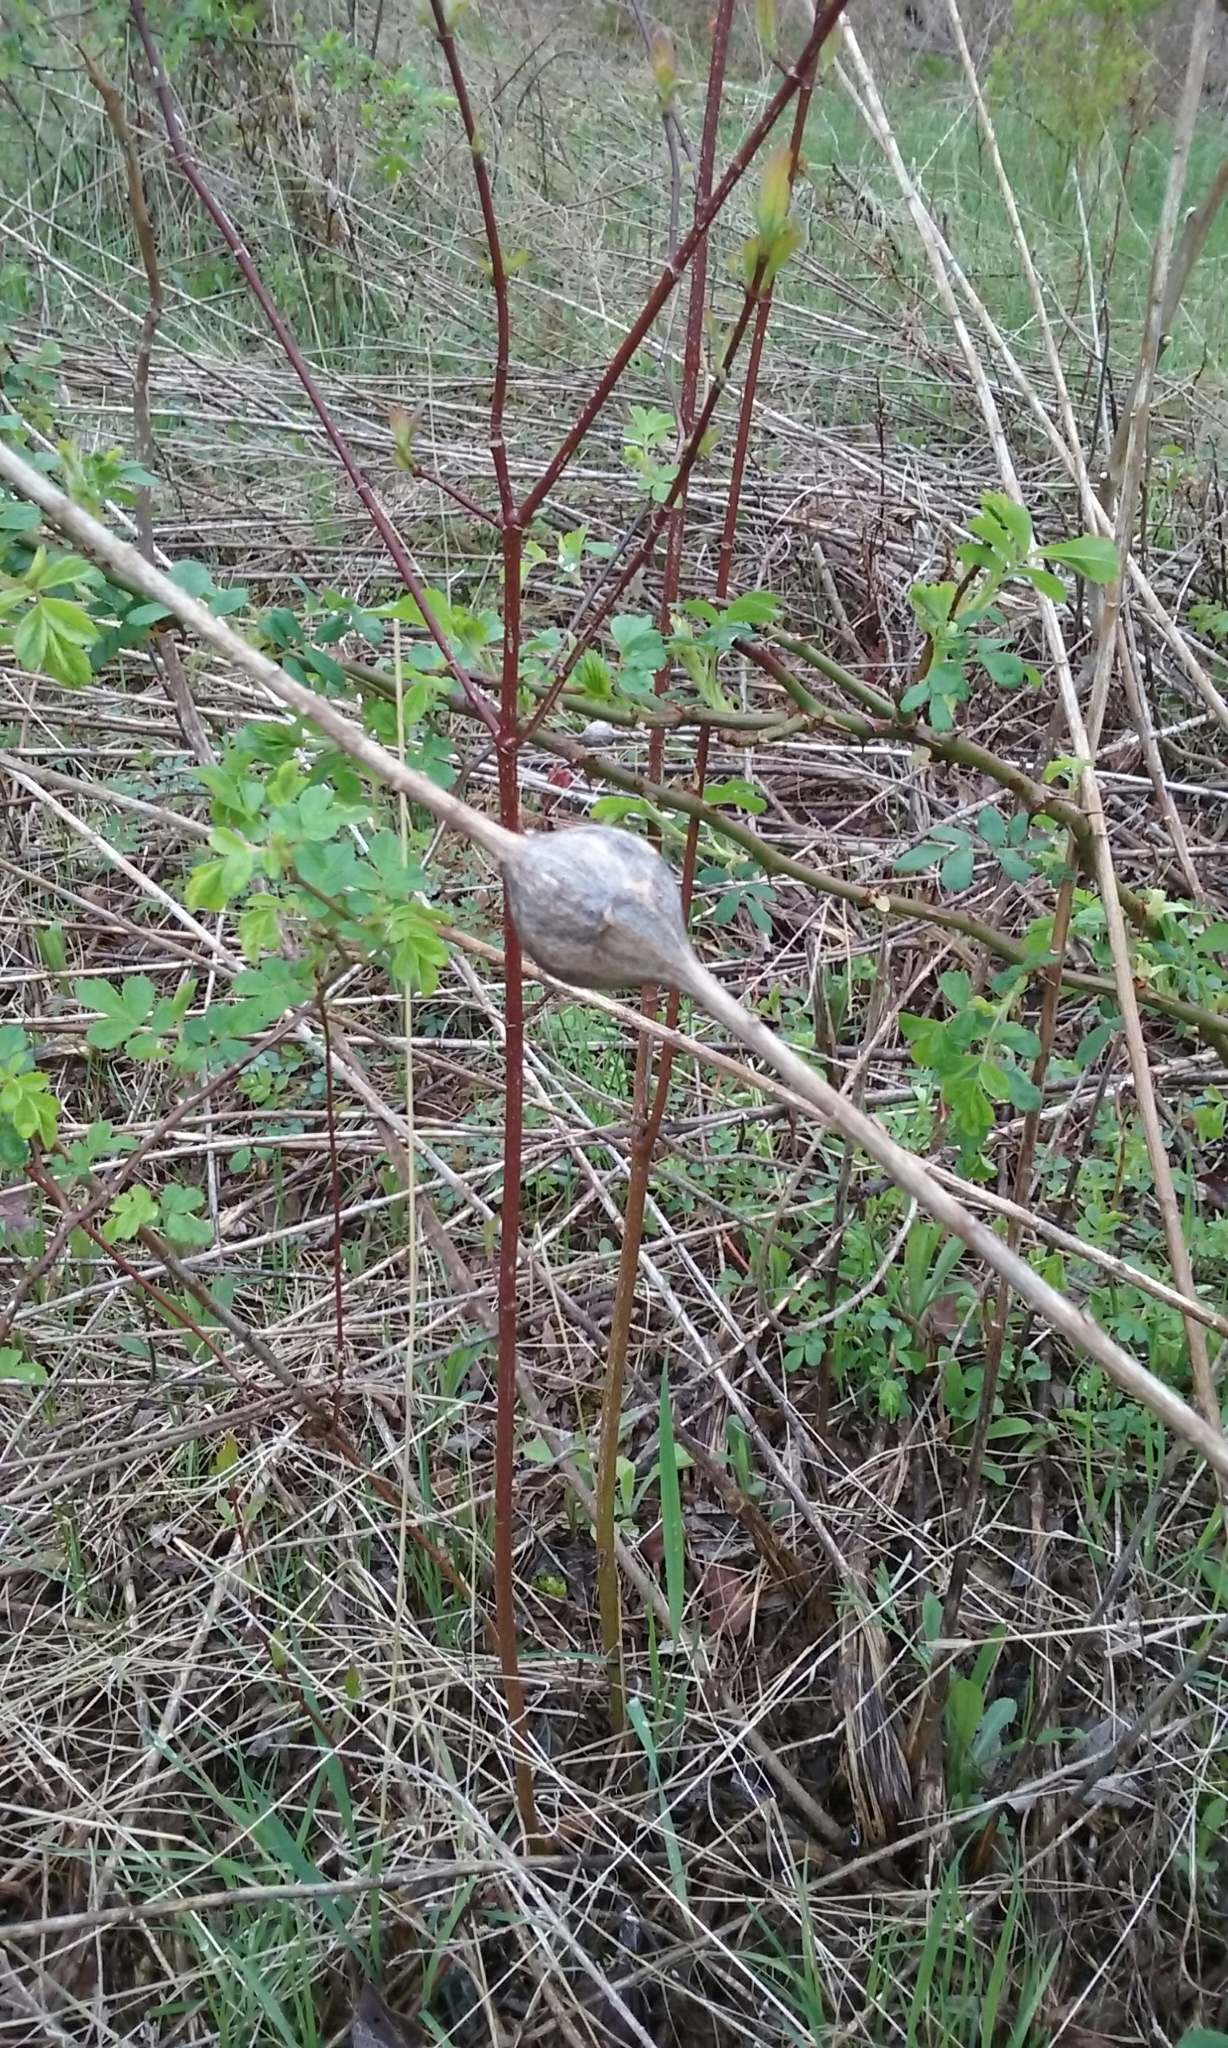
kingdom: Animalia
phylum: Arthropoda
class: Insecta
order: Diptera
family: Tephritidae
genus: Eurosta
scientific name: Eurosta solidaginis
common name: Goldenrod gall fly
